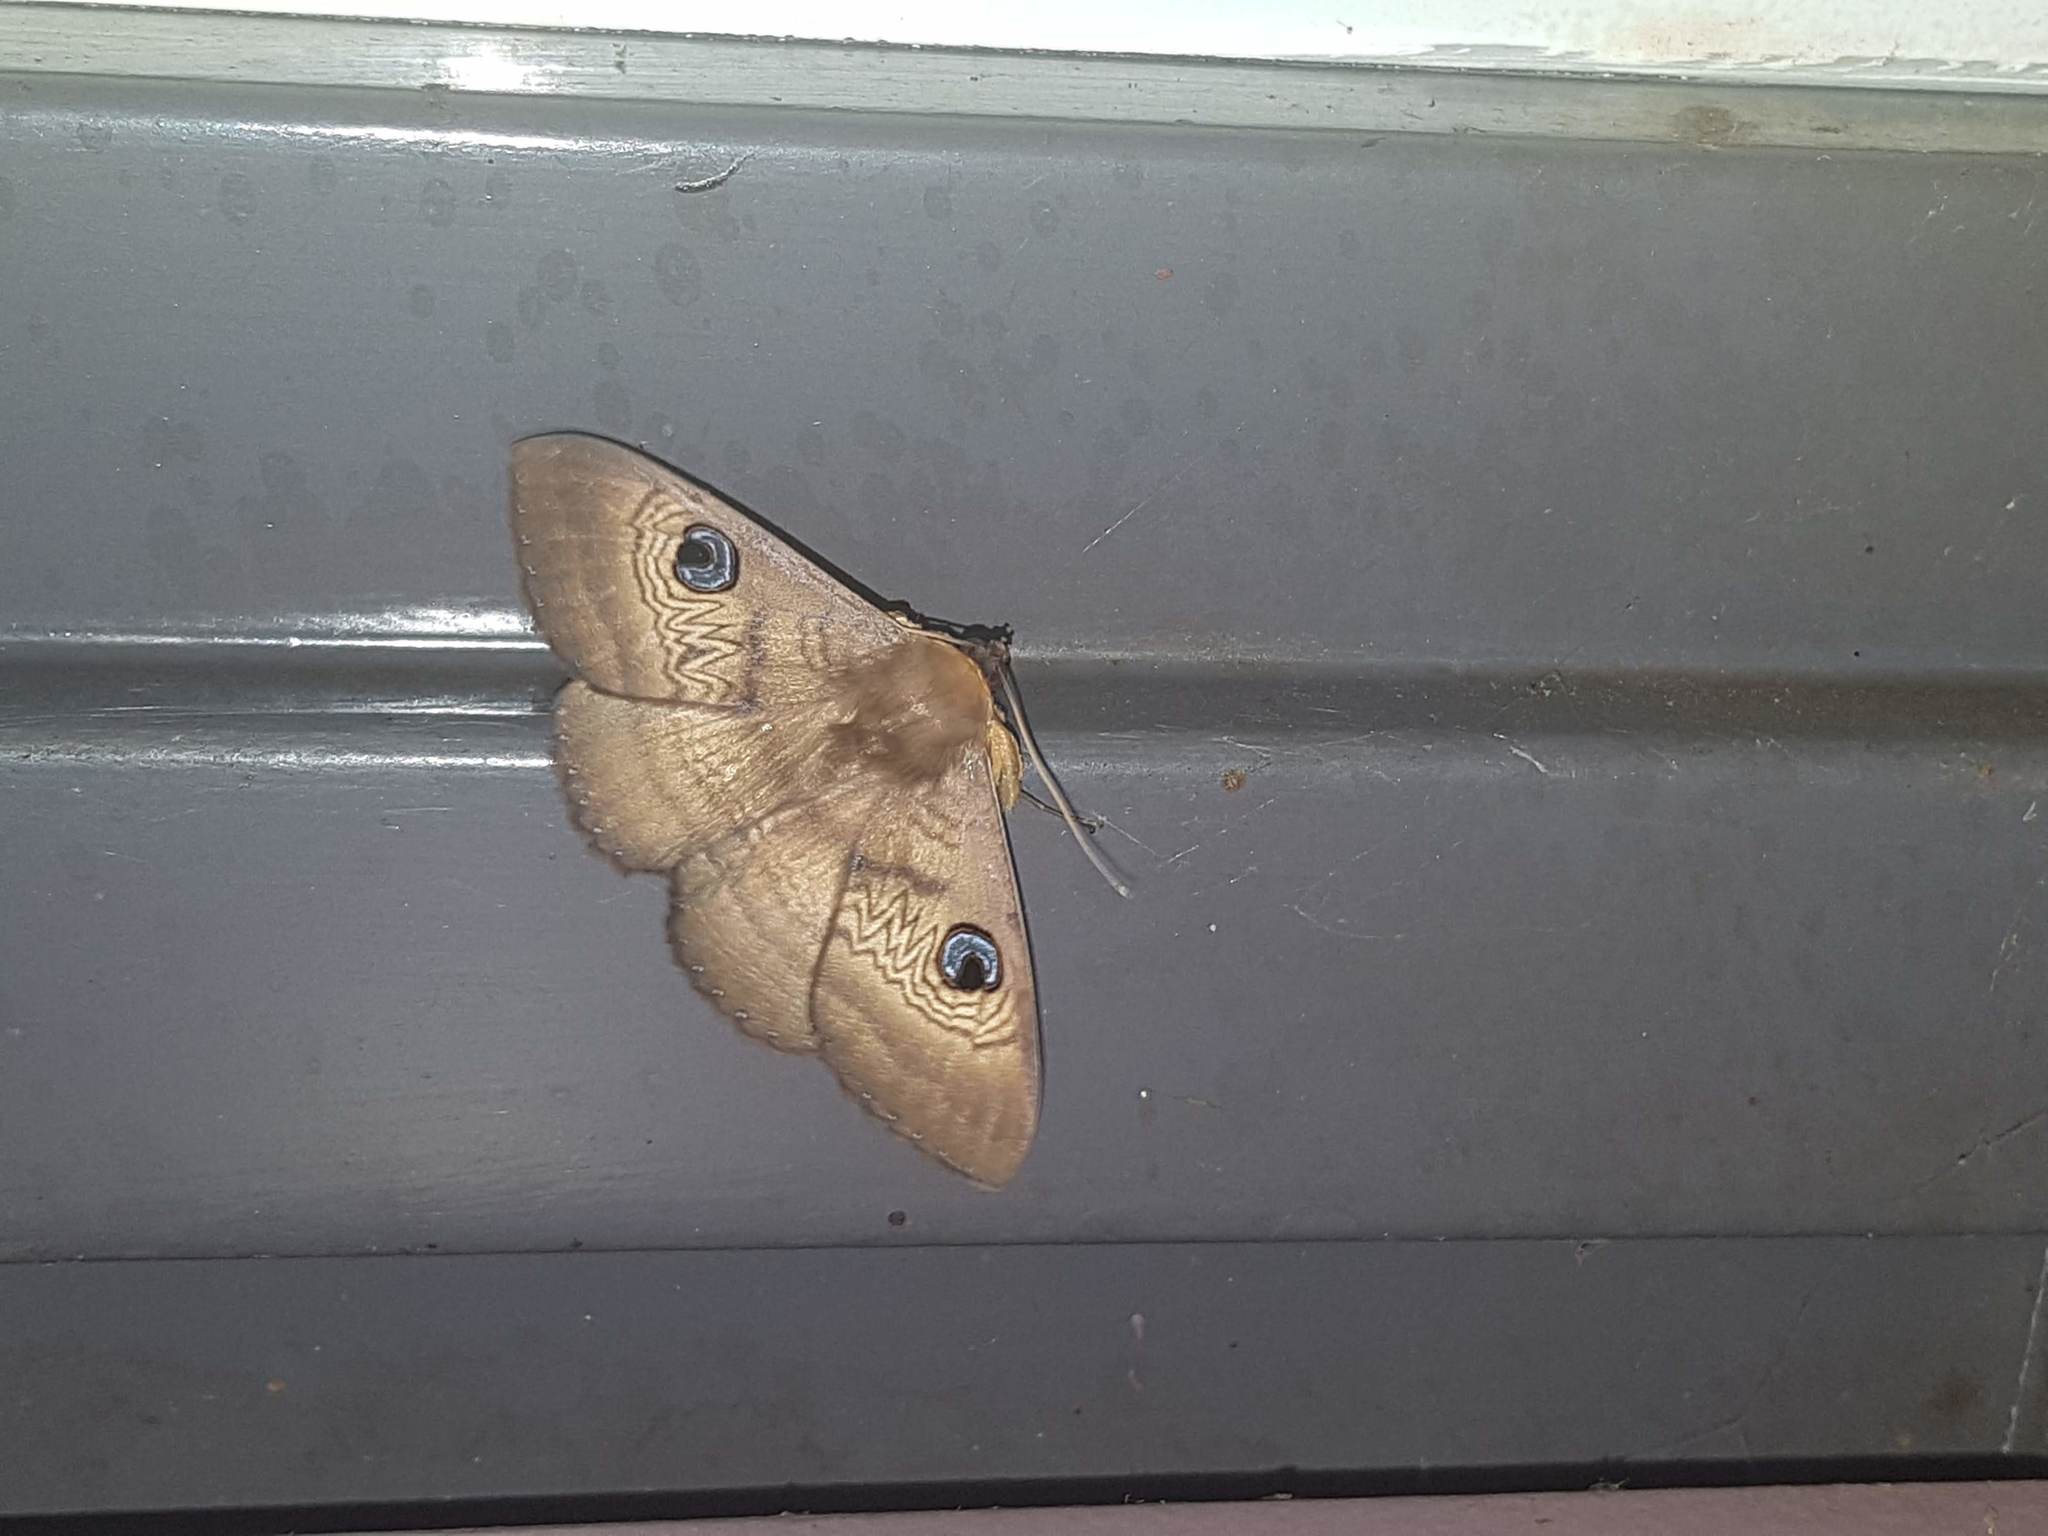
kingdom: Animalia
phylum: Arthropoda
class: Insecta
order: Lepidoptera
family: Erebidae
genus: Dasypodia
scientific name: Dasypodia selenophora
